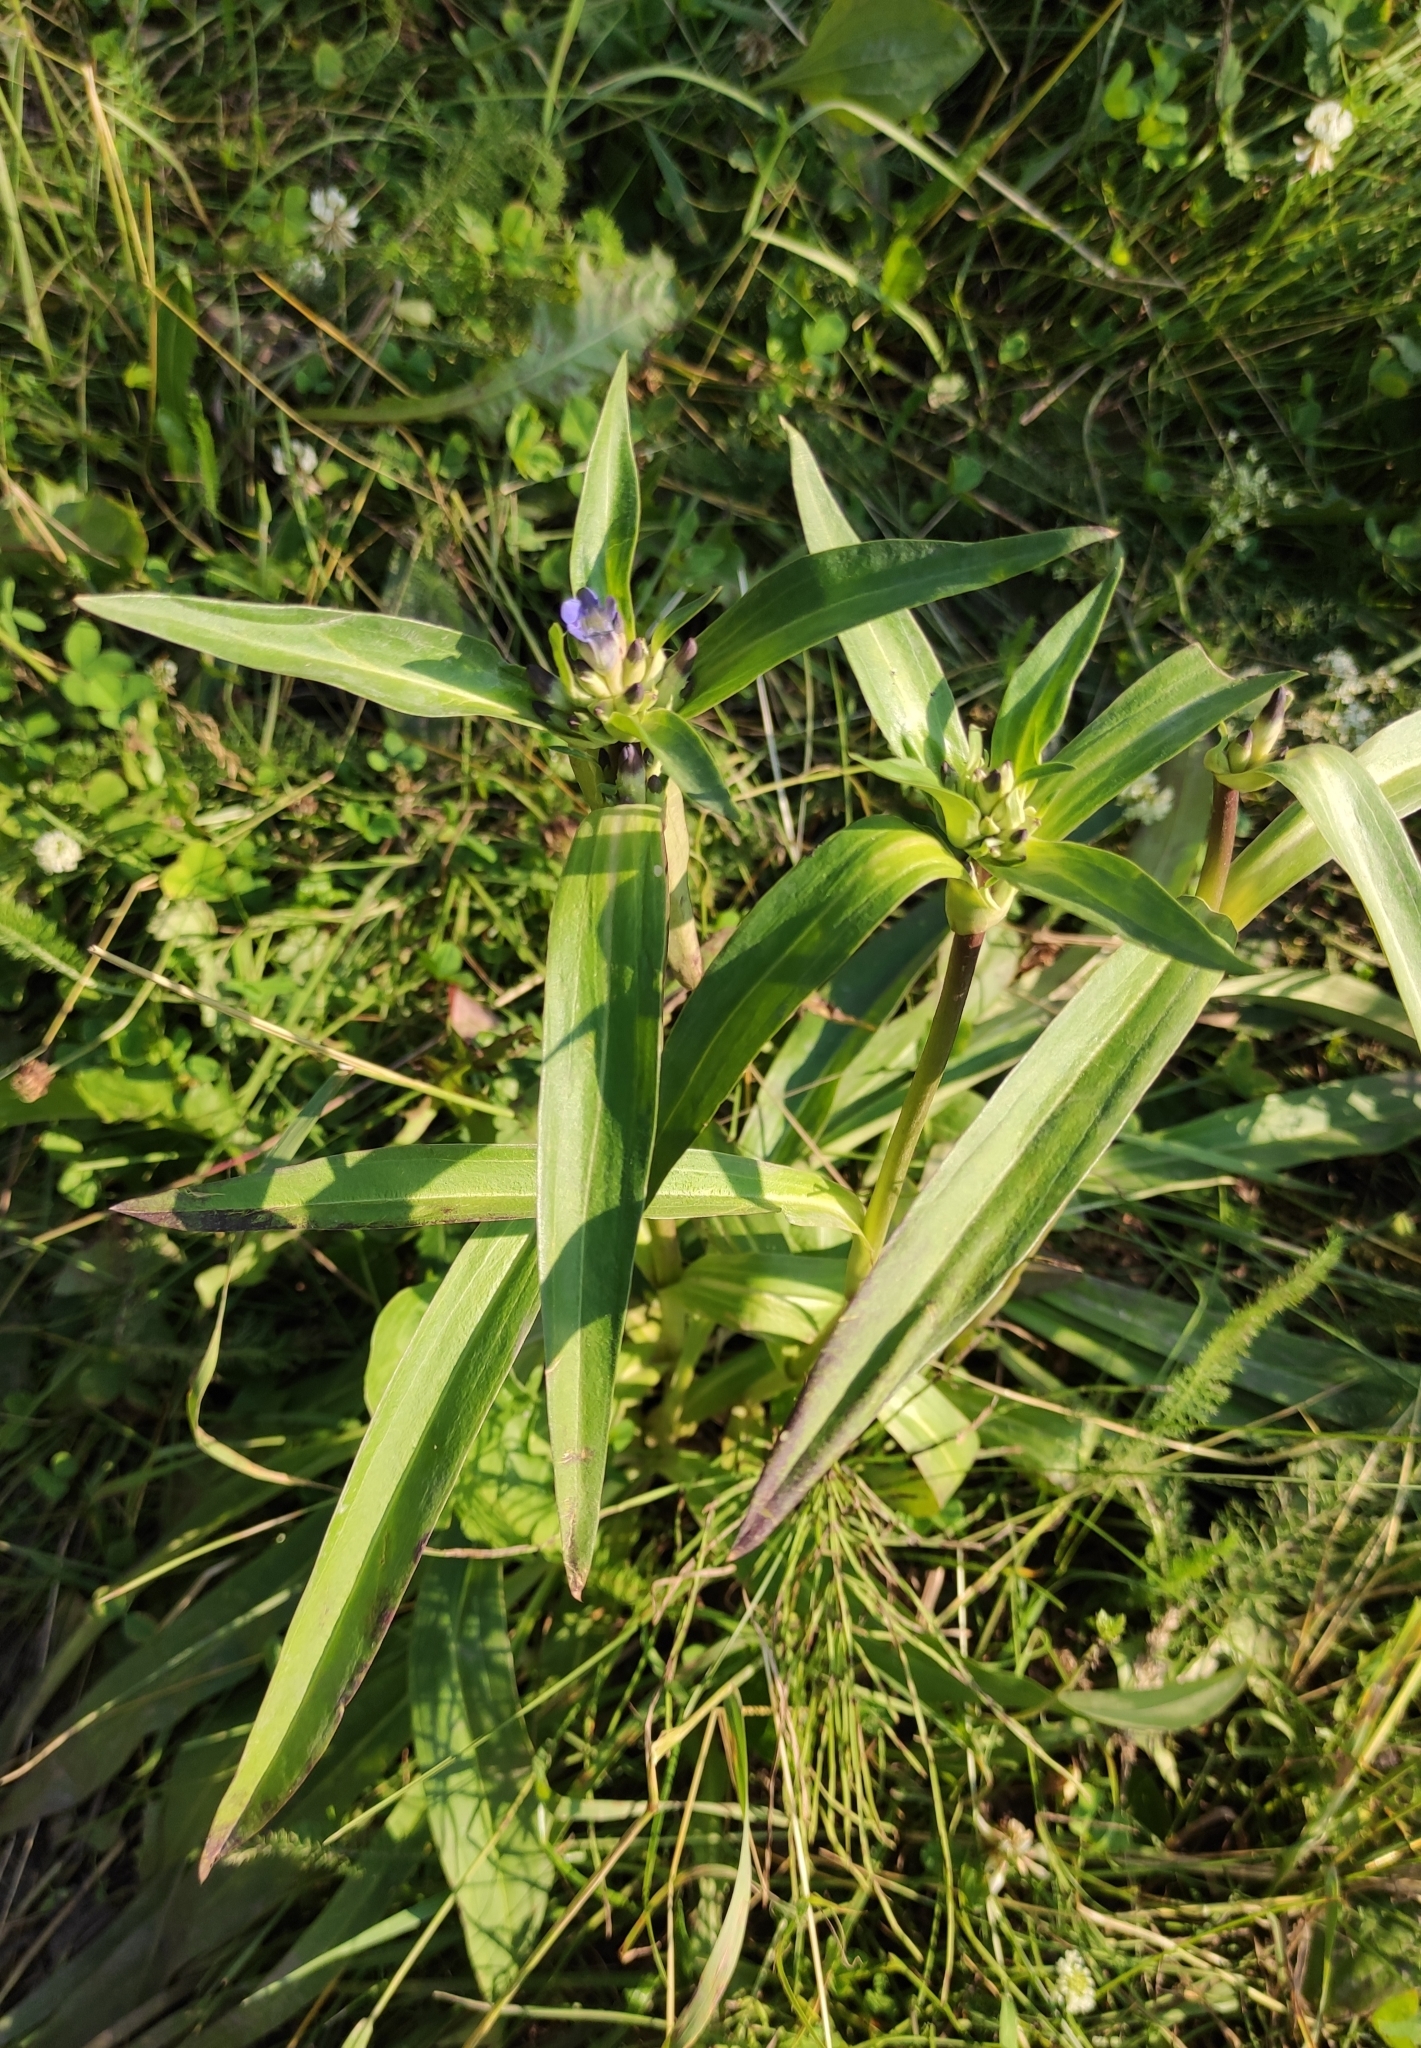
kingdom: Plantae
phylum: Tracheophyta
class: Magnoliopsida
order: Gentianales
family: Gentianaceae
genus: Gentiana
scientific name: Gentiana macrophylla
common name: Large-leaf gentian
